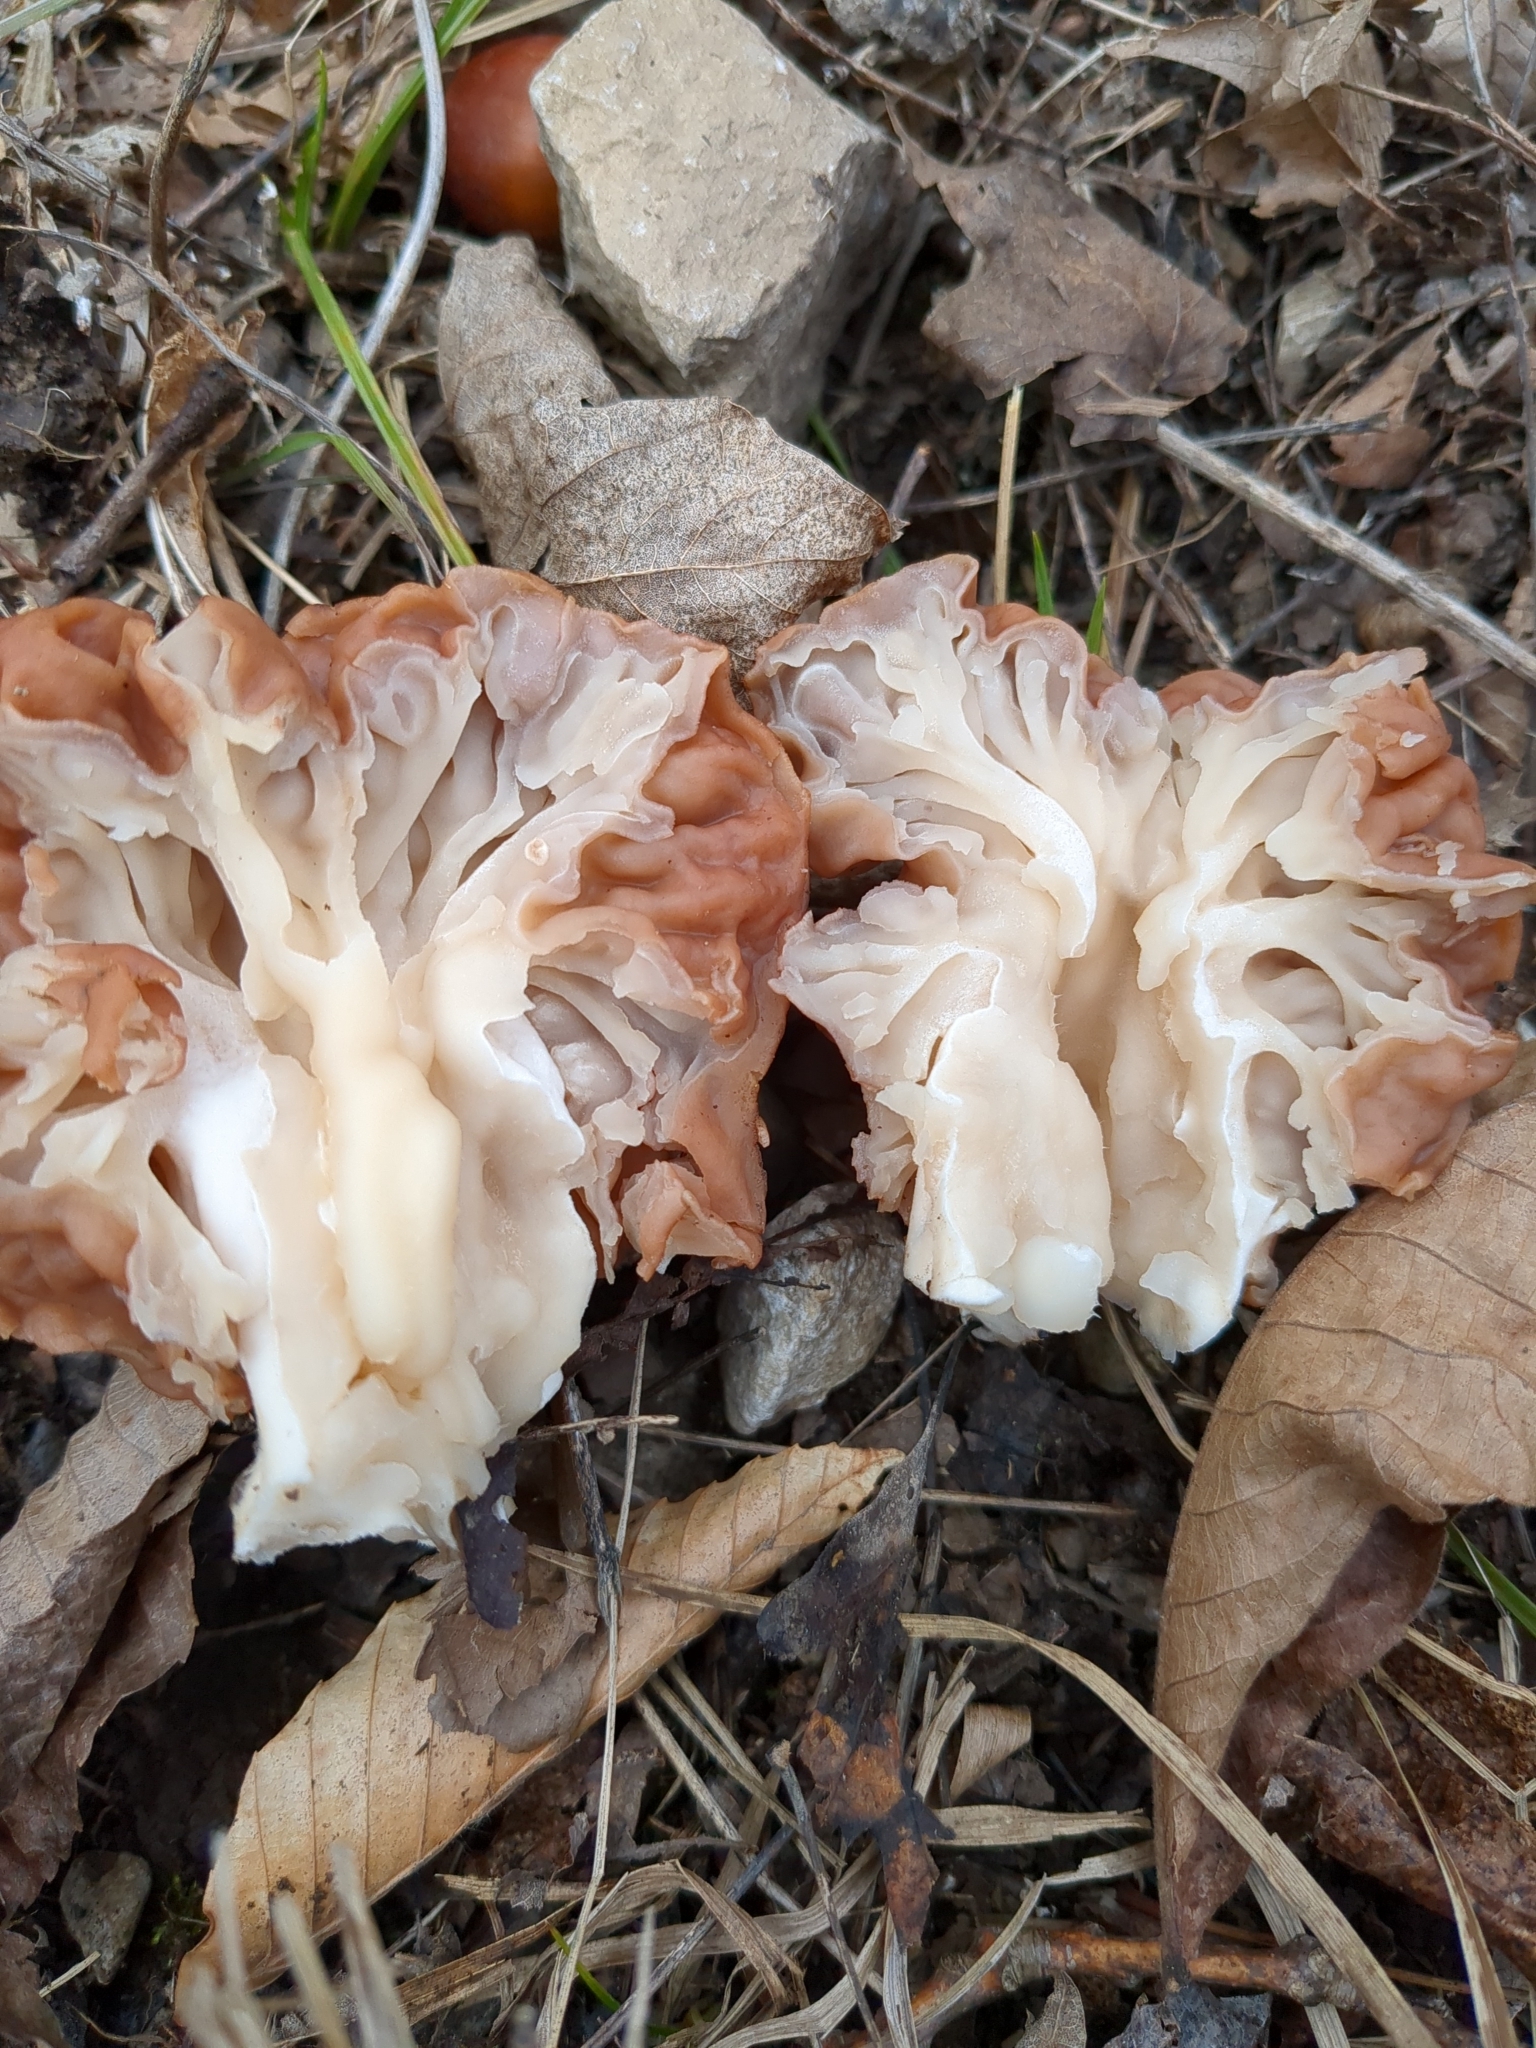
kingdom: Fungi
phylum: Ascomycota
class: Pezizomycetes
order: Pezizales
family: Discinaceae
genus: Discina
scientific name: Discina caroliniana
